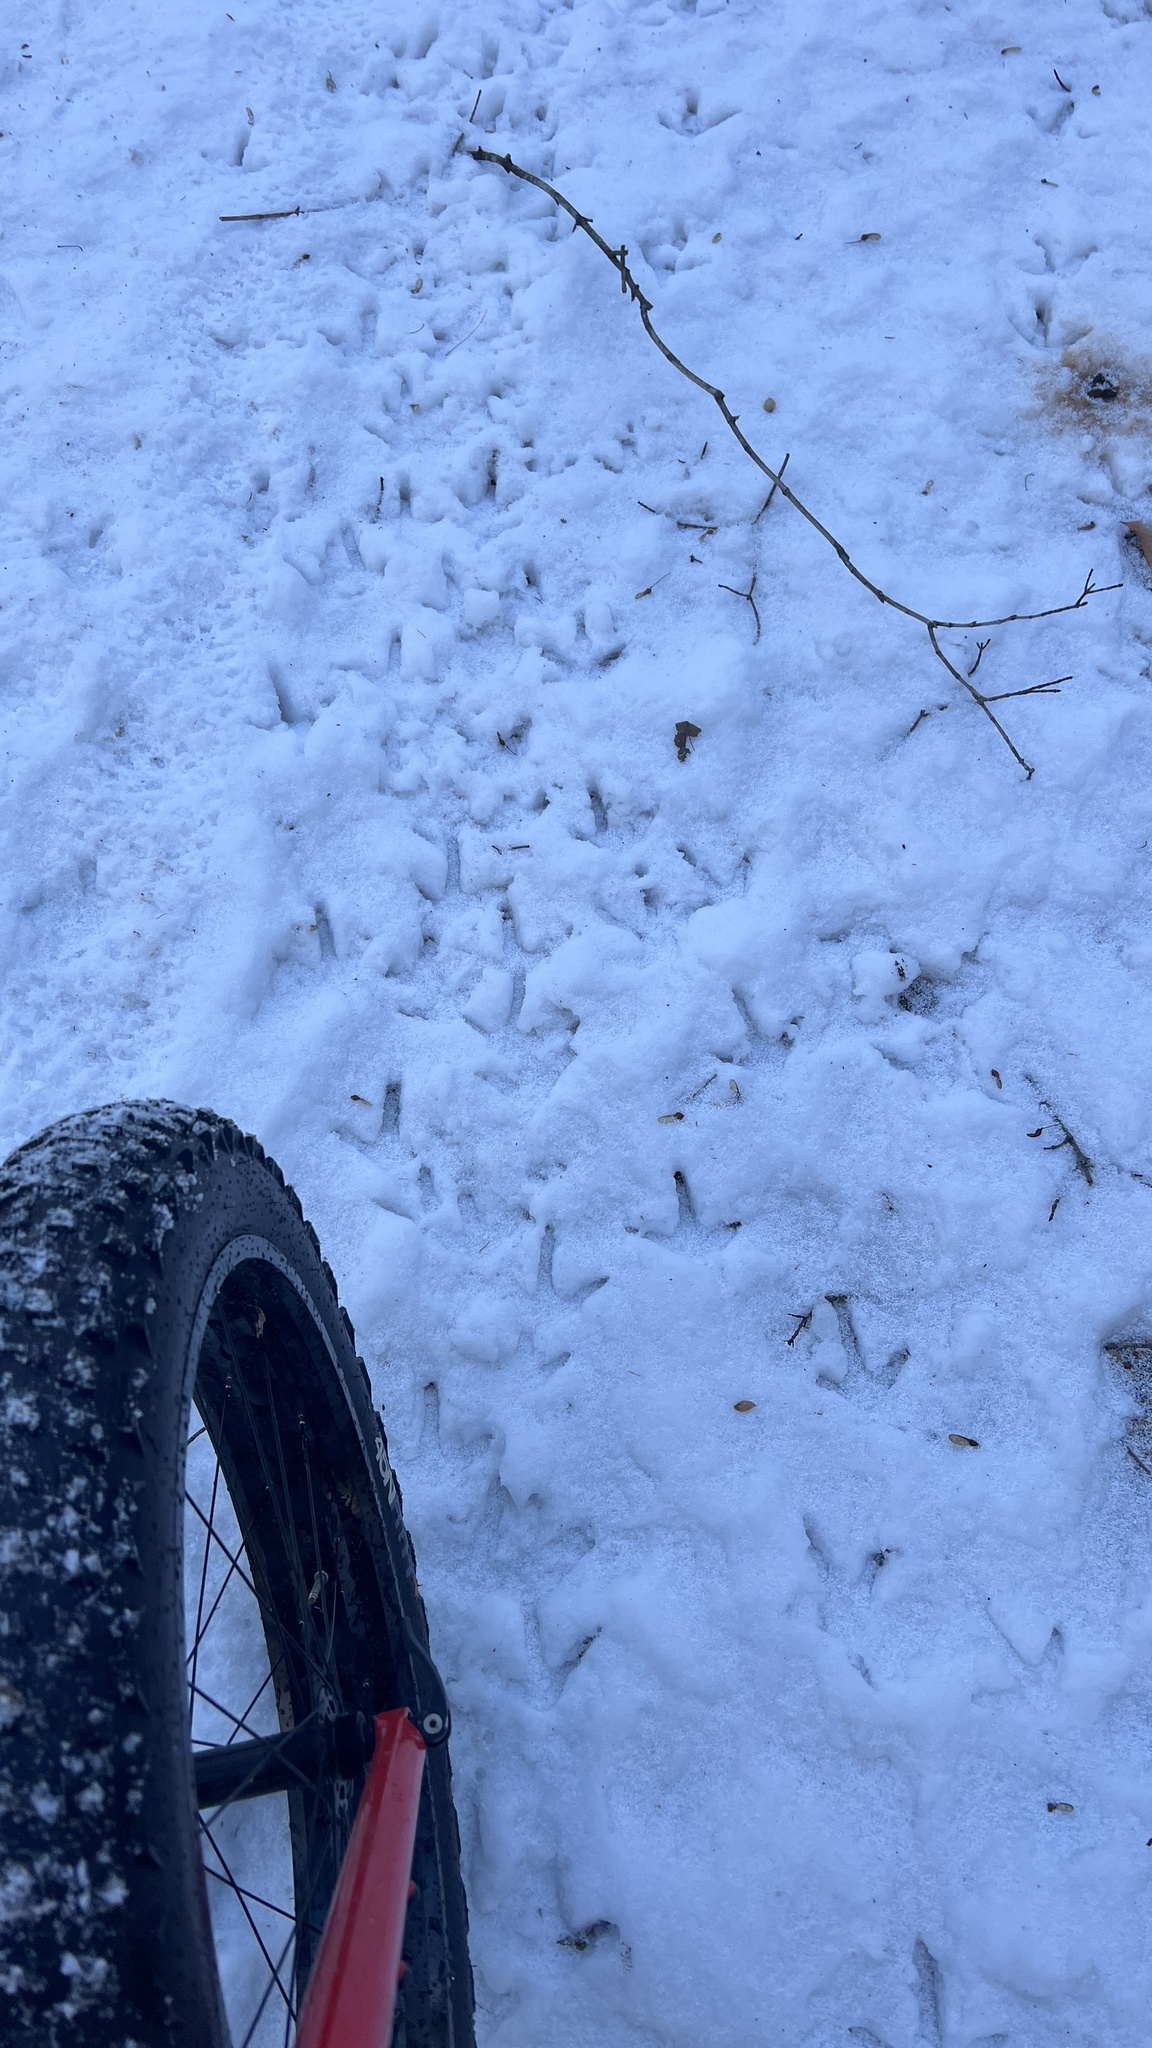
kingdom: Animalia
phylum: Chordata
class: Aves
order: Galliformes
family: Phasianidae
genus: Meleagris
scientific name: Meleagris gallopavo
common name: Wild turkey
